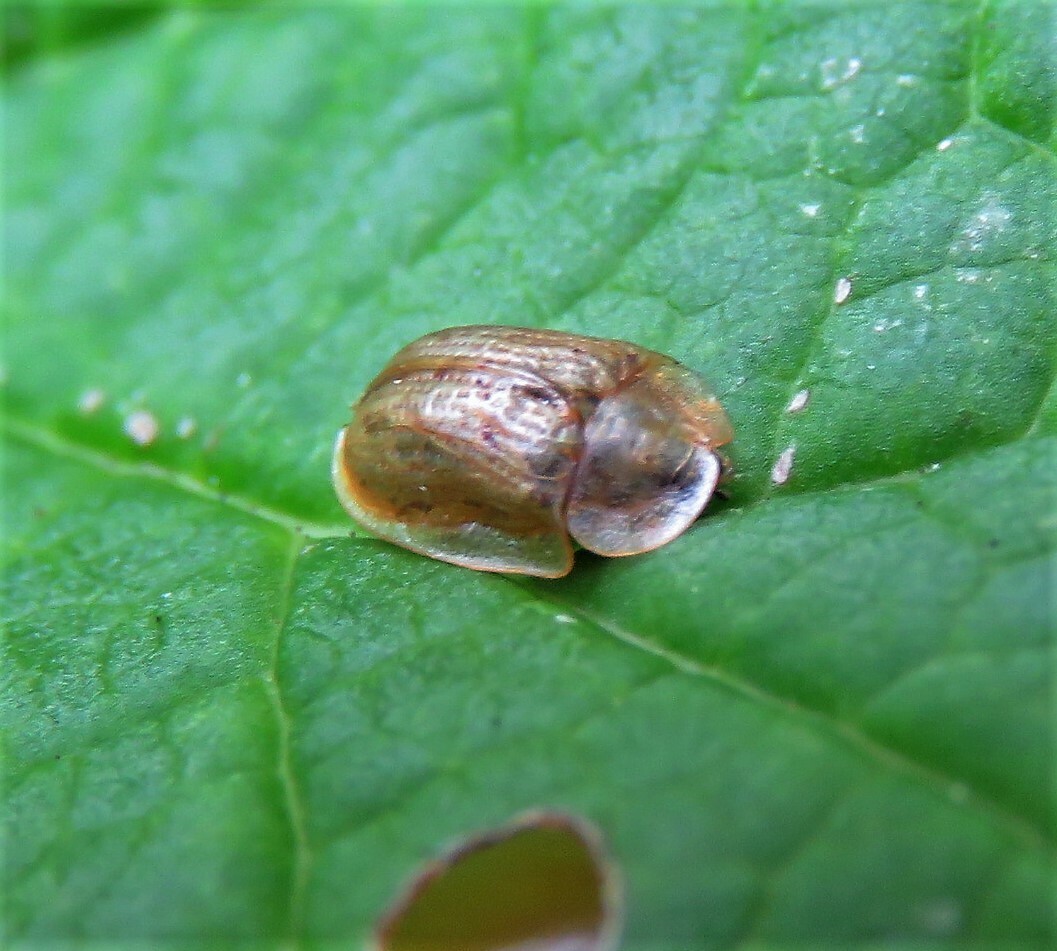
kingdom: Animalia
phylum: Arthropoda
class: Insecta
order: Coleoptera
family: Chrysomelidae
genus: Cassida
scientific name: Cassida flaveola
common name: Pale tortoise beetle
